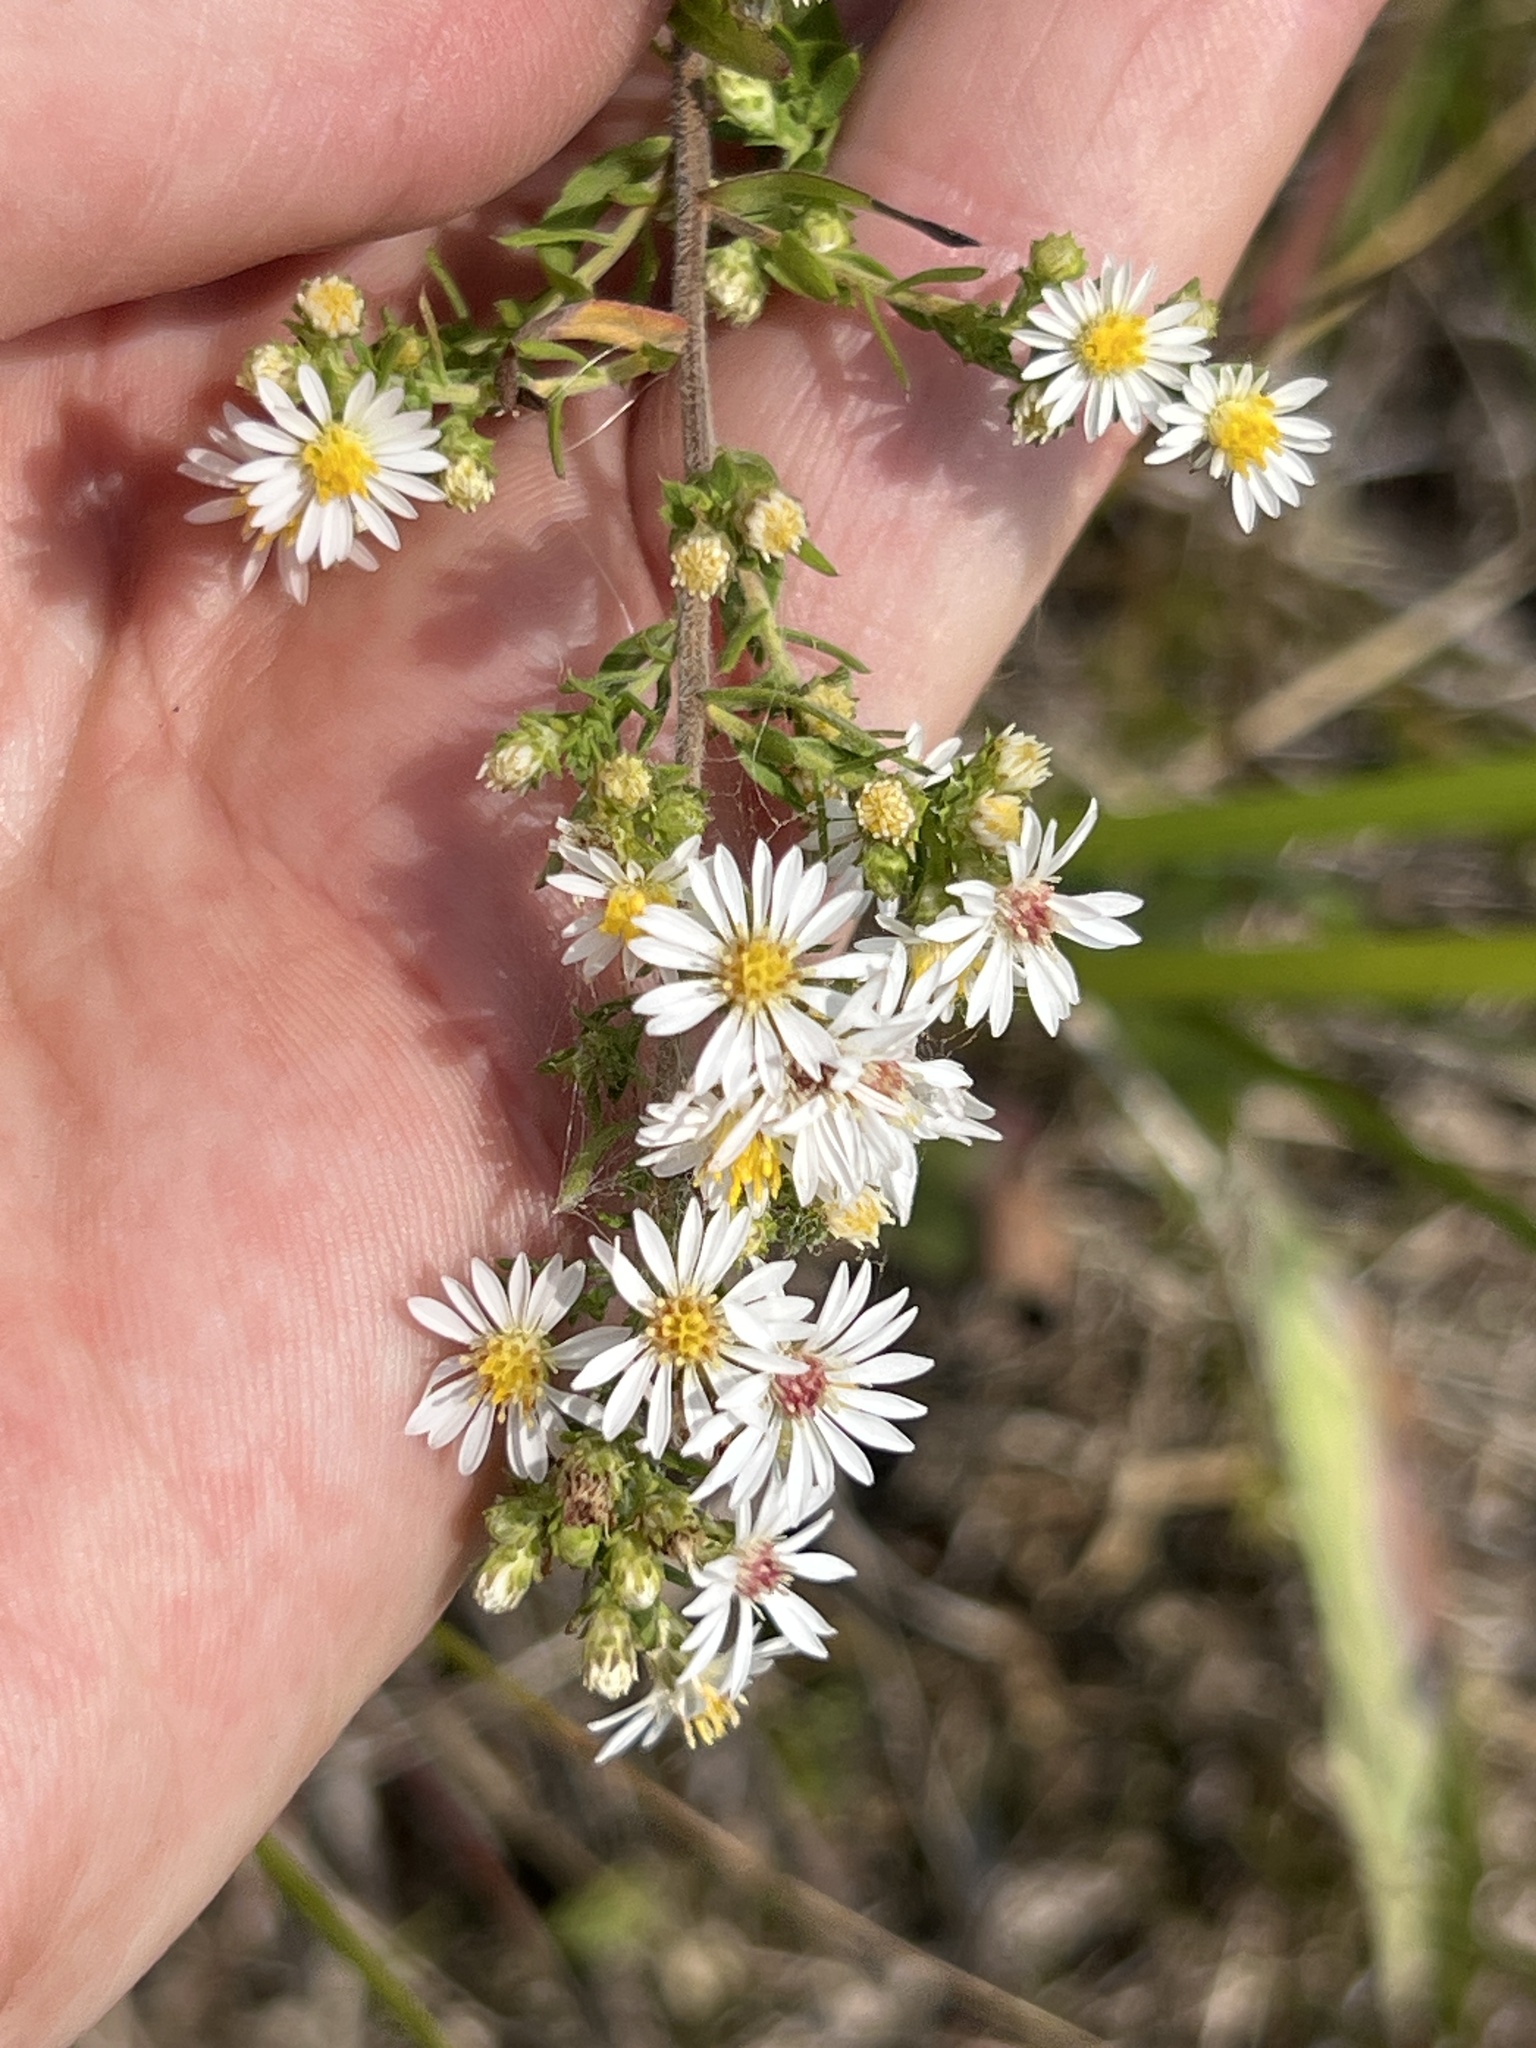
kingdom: Plantae
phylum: Tracheophyta
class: Magnoliopsida
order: Asterales
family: Asteraceae
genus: Symphyotrichum
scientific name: Symphyotrichum ericoides
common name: Heath aster
